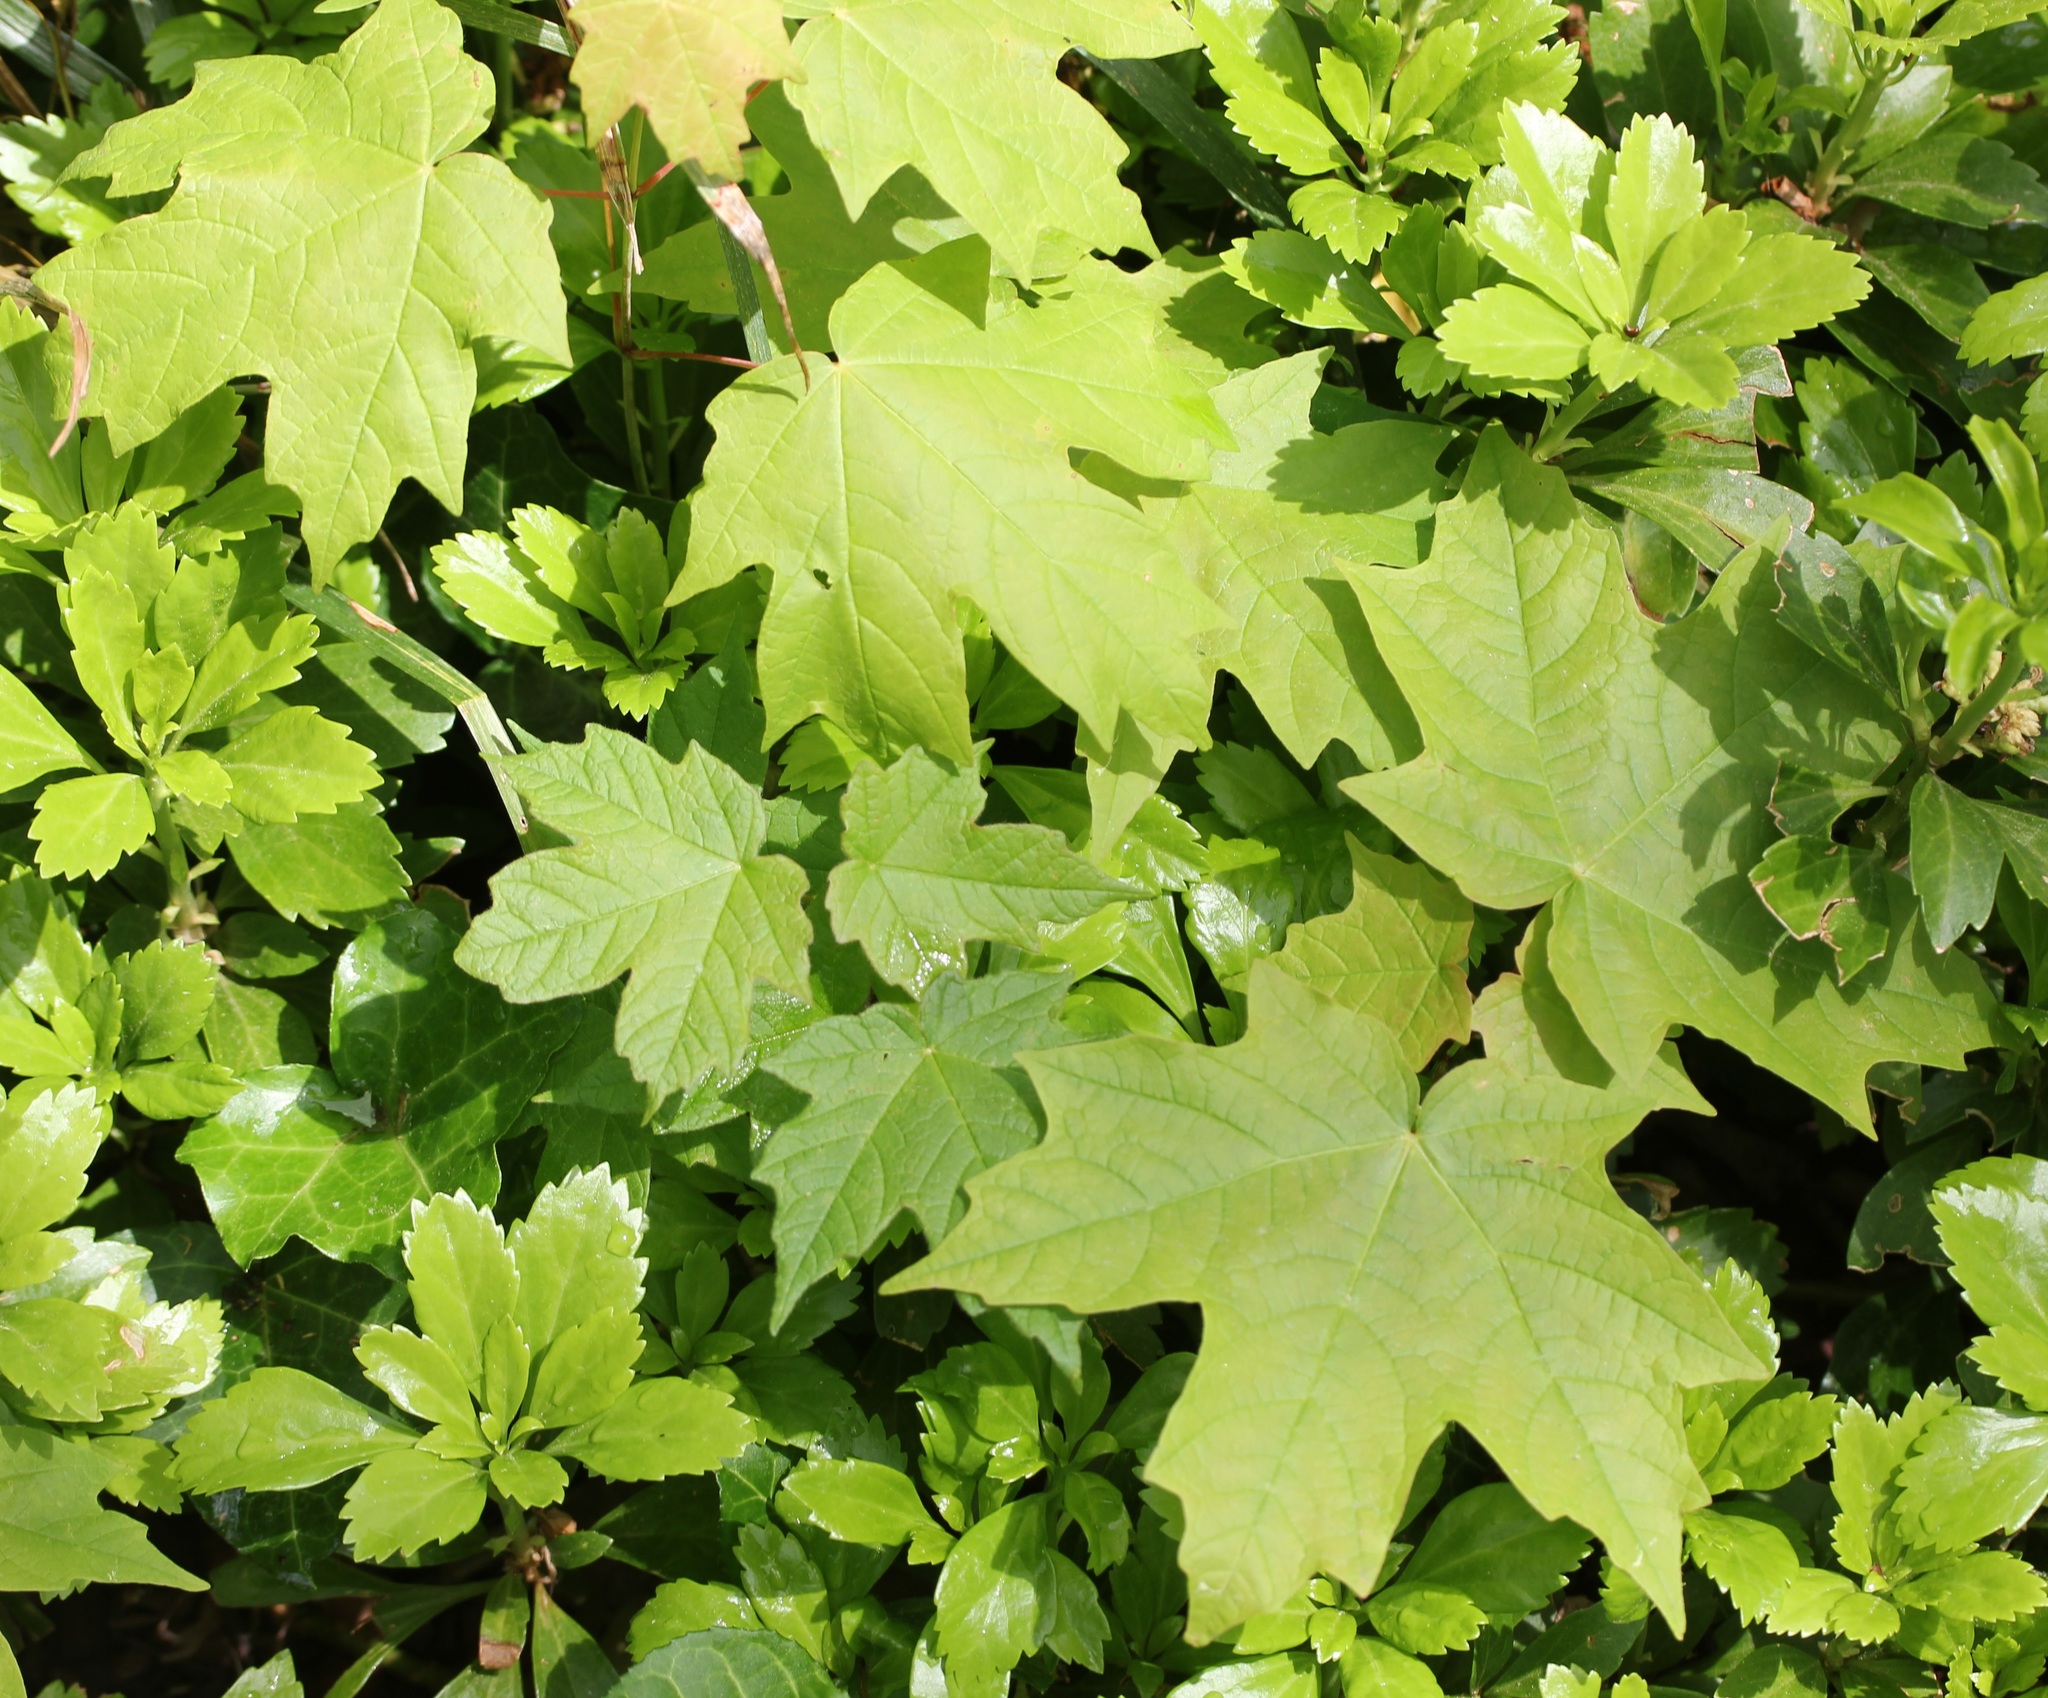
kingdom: Plantae
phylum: Tracheophyta
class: Magnoliopsida
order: Sapindales
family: Sapindaceae
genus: Acer
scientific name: Acer saccharum
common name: Sugar maple
